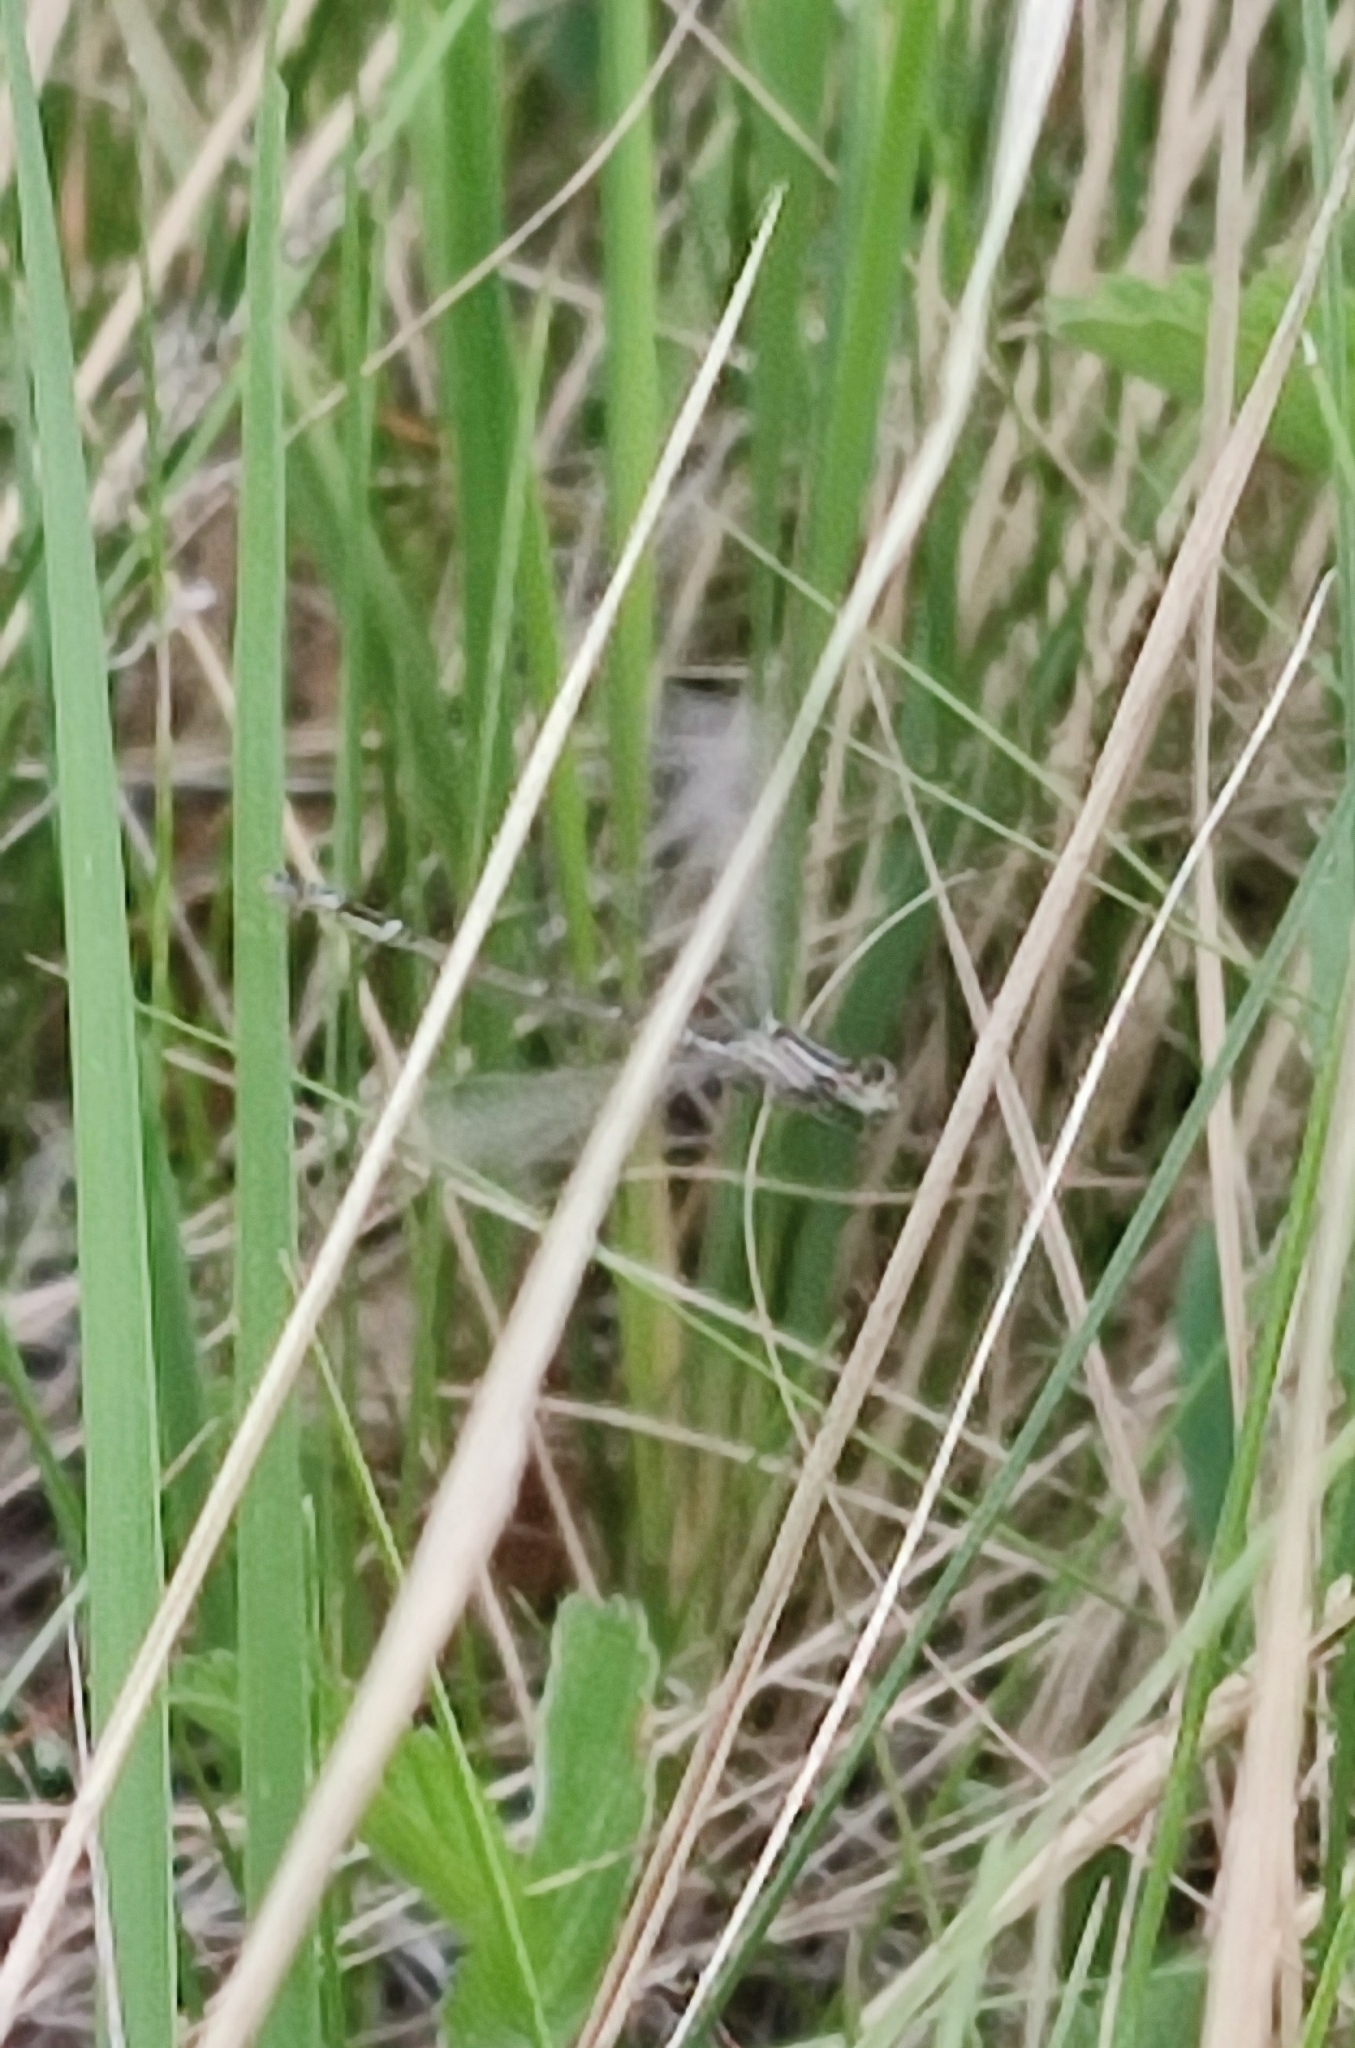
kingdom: Animalia
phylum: Arthropoda
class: Insecta
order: Odonata
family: Coenagrionidae
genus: Enallagma
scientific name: Enallagma cyathigerum
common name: Common blue damselfly
